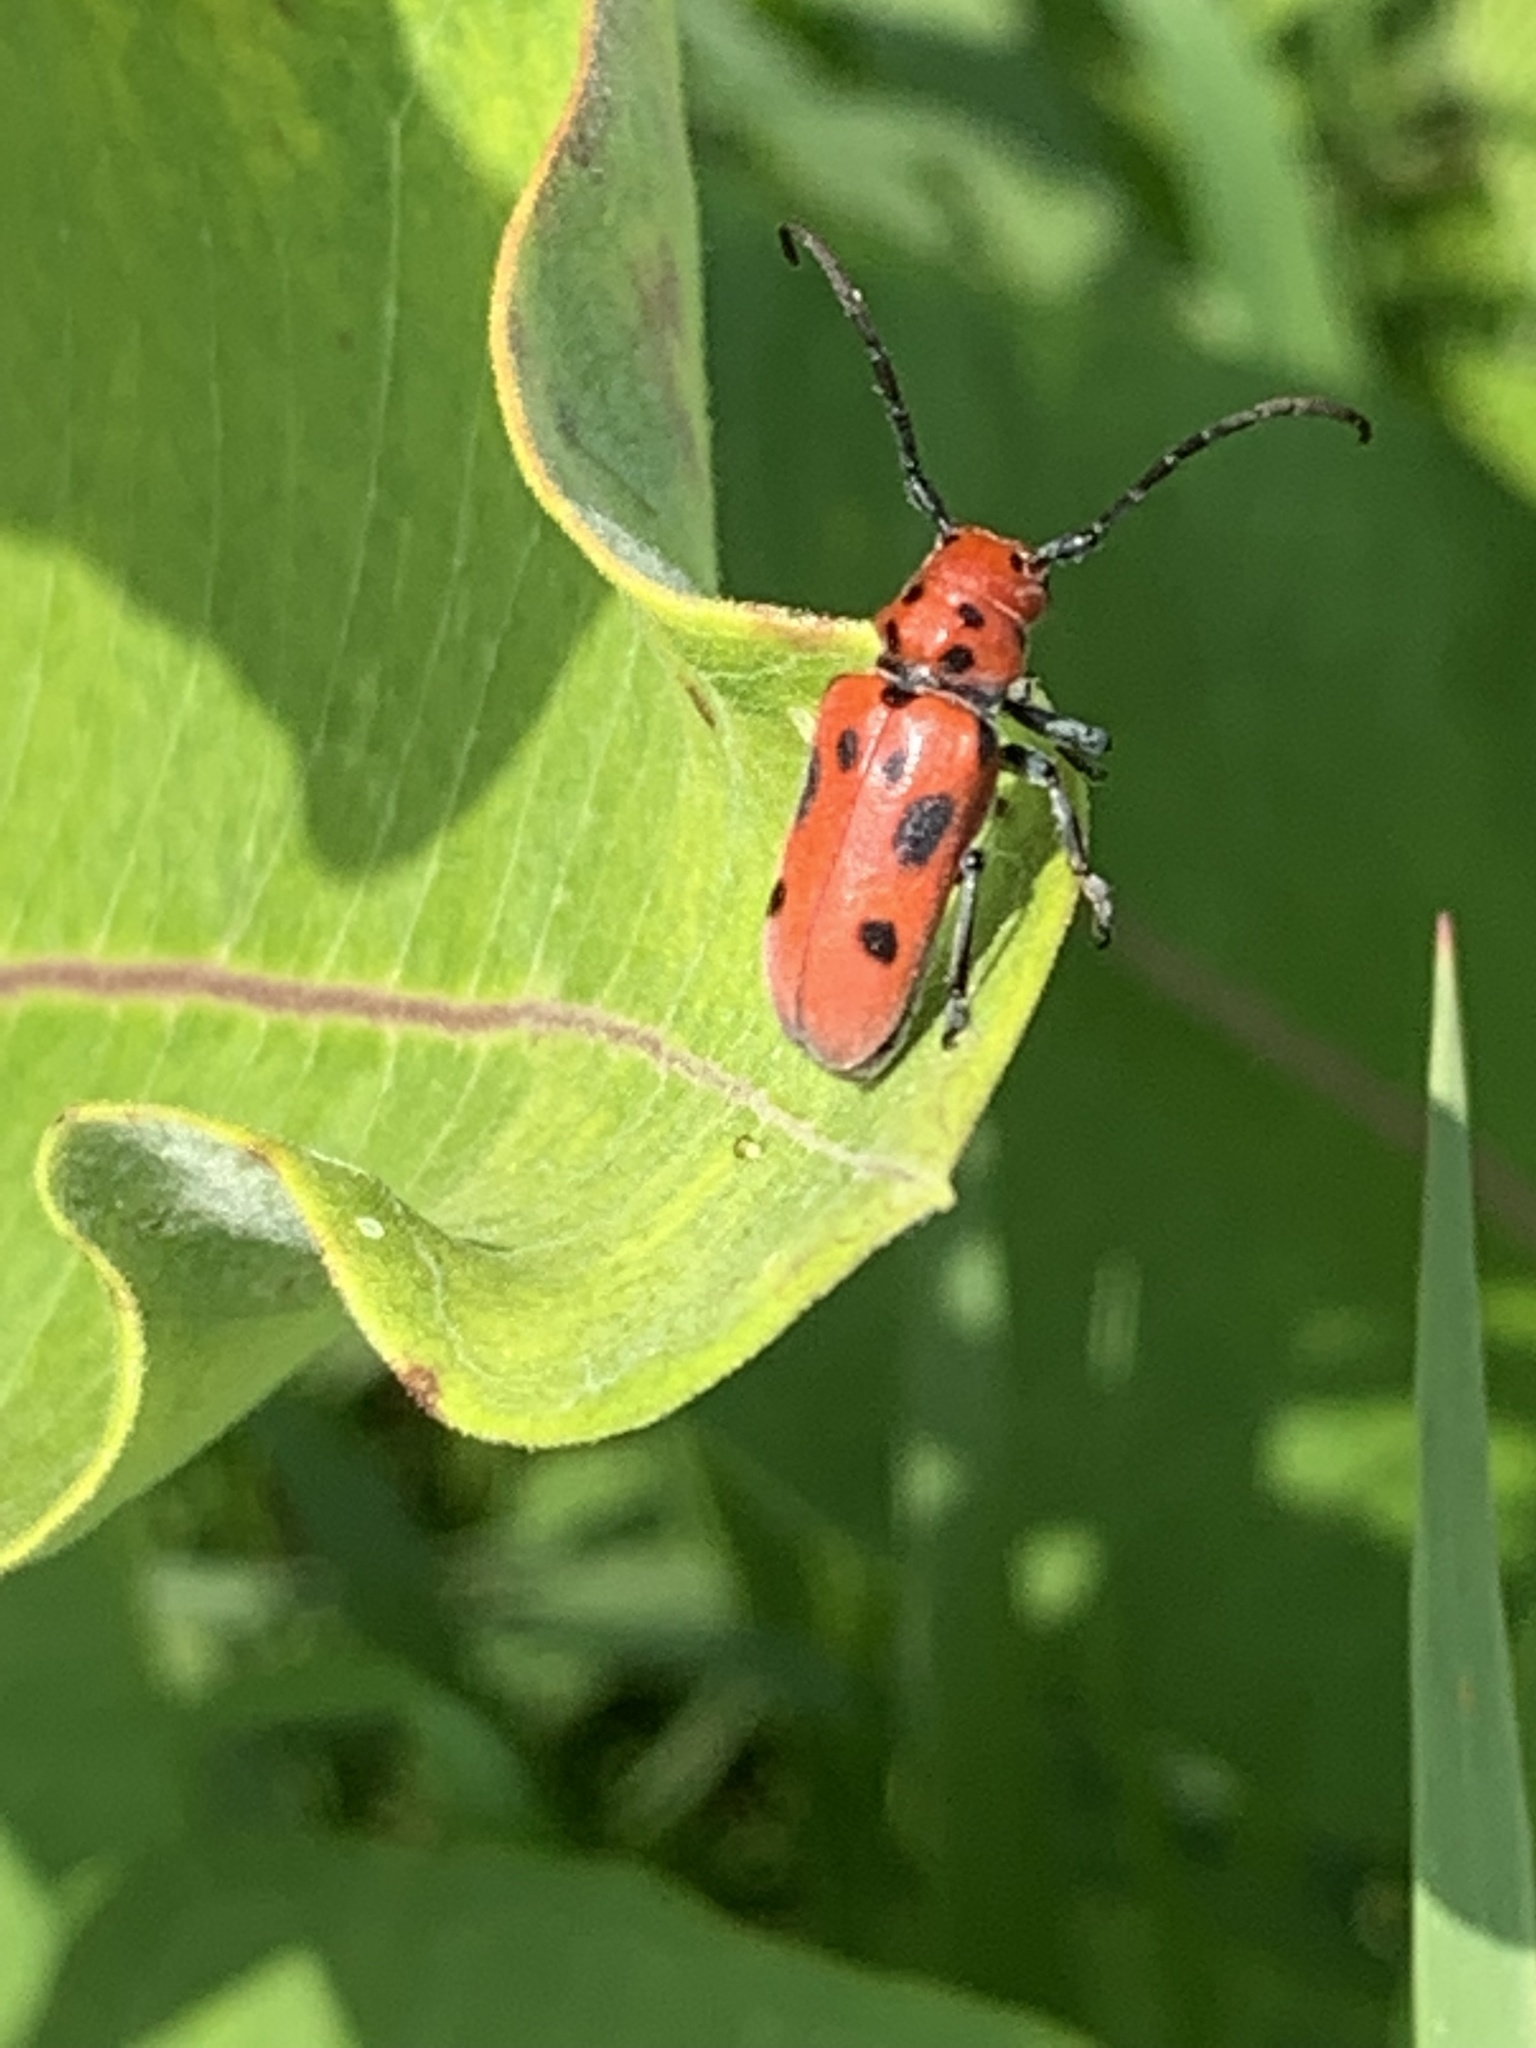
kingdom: Animalia
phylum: Arthropoda
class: Insecta
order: Coleoptera
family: Cerambycidae
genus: Tetraopes
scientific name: Tetraopes tetrophthalmus
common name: Red milkweed beetle
